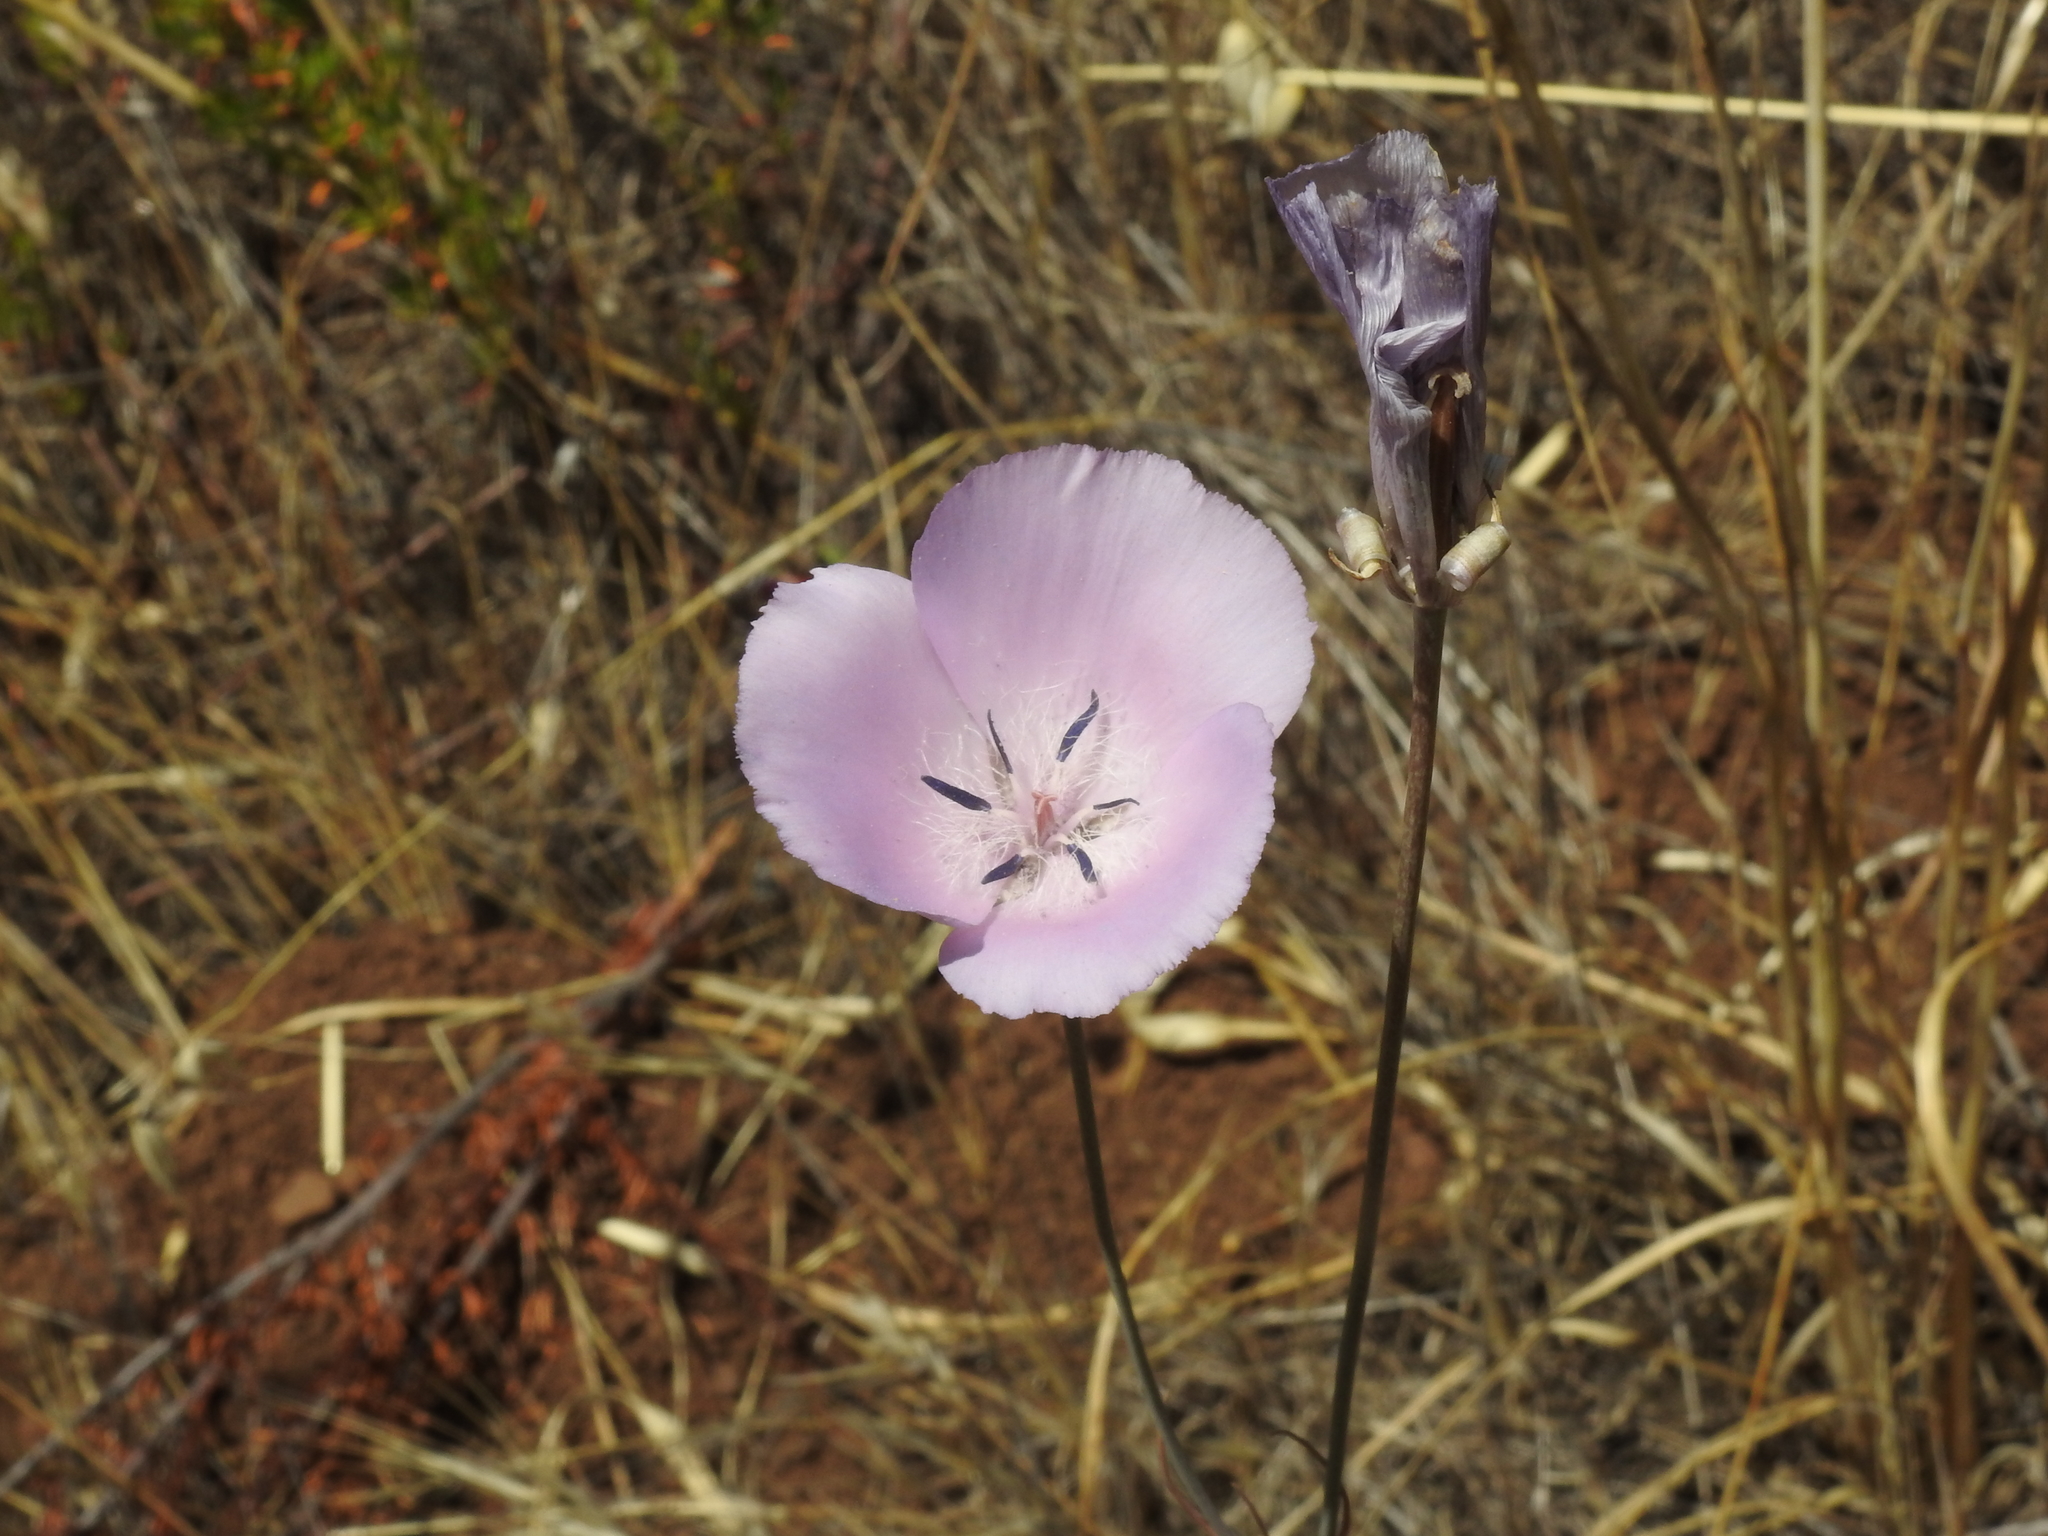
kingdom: Plantae
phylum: Tracheophyta
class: Liliopsida
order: Liliales
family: Liliaceae
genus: Calochortus
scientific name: Calochortus splendens
